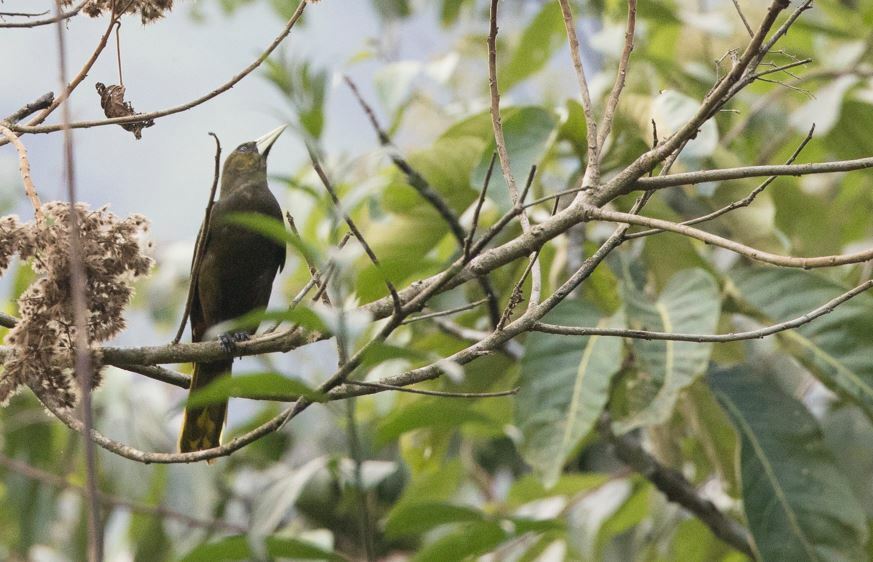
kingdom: Animalia
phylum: Chordata
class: Aves
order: Passeriformes
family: Icteridae
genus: Psarocolius
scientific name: Psarocolius atrovirens
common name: Dusky-green oropendola
